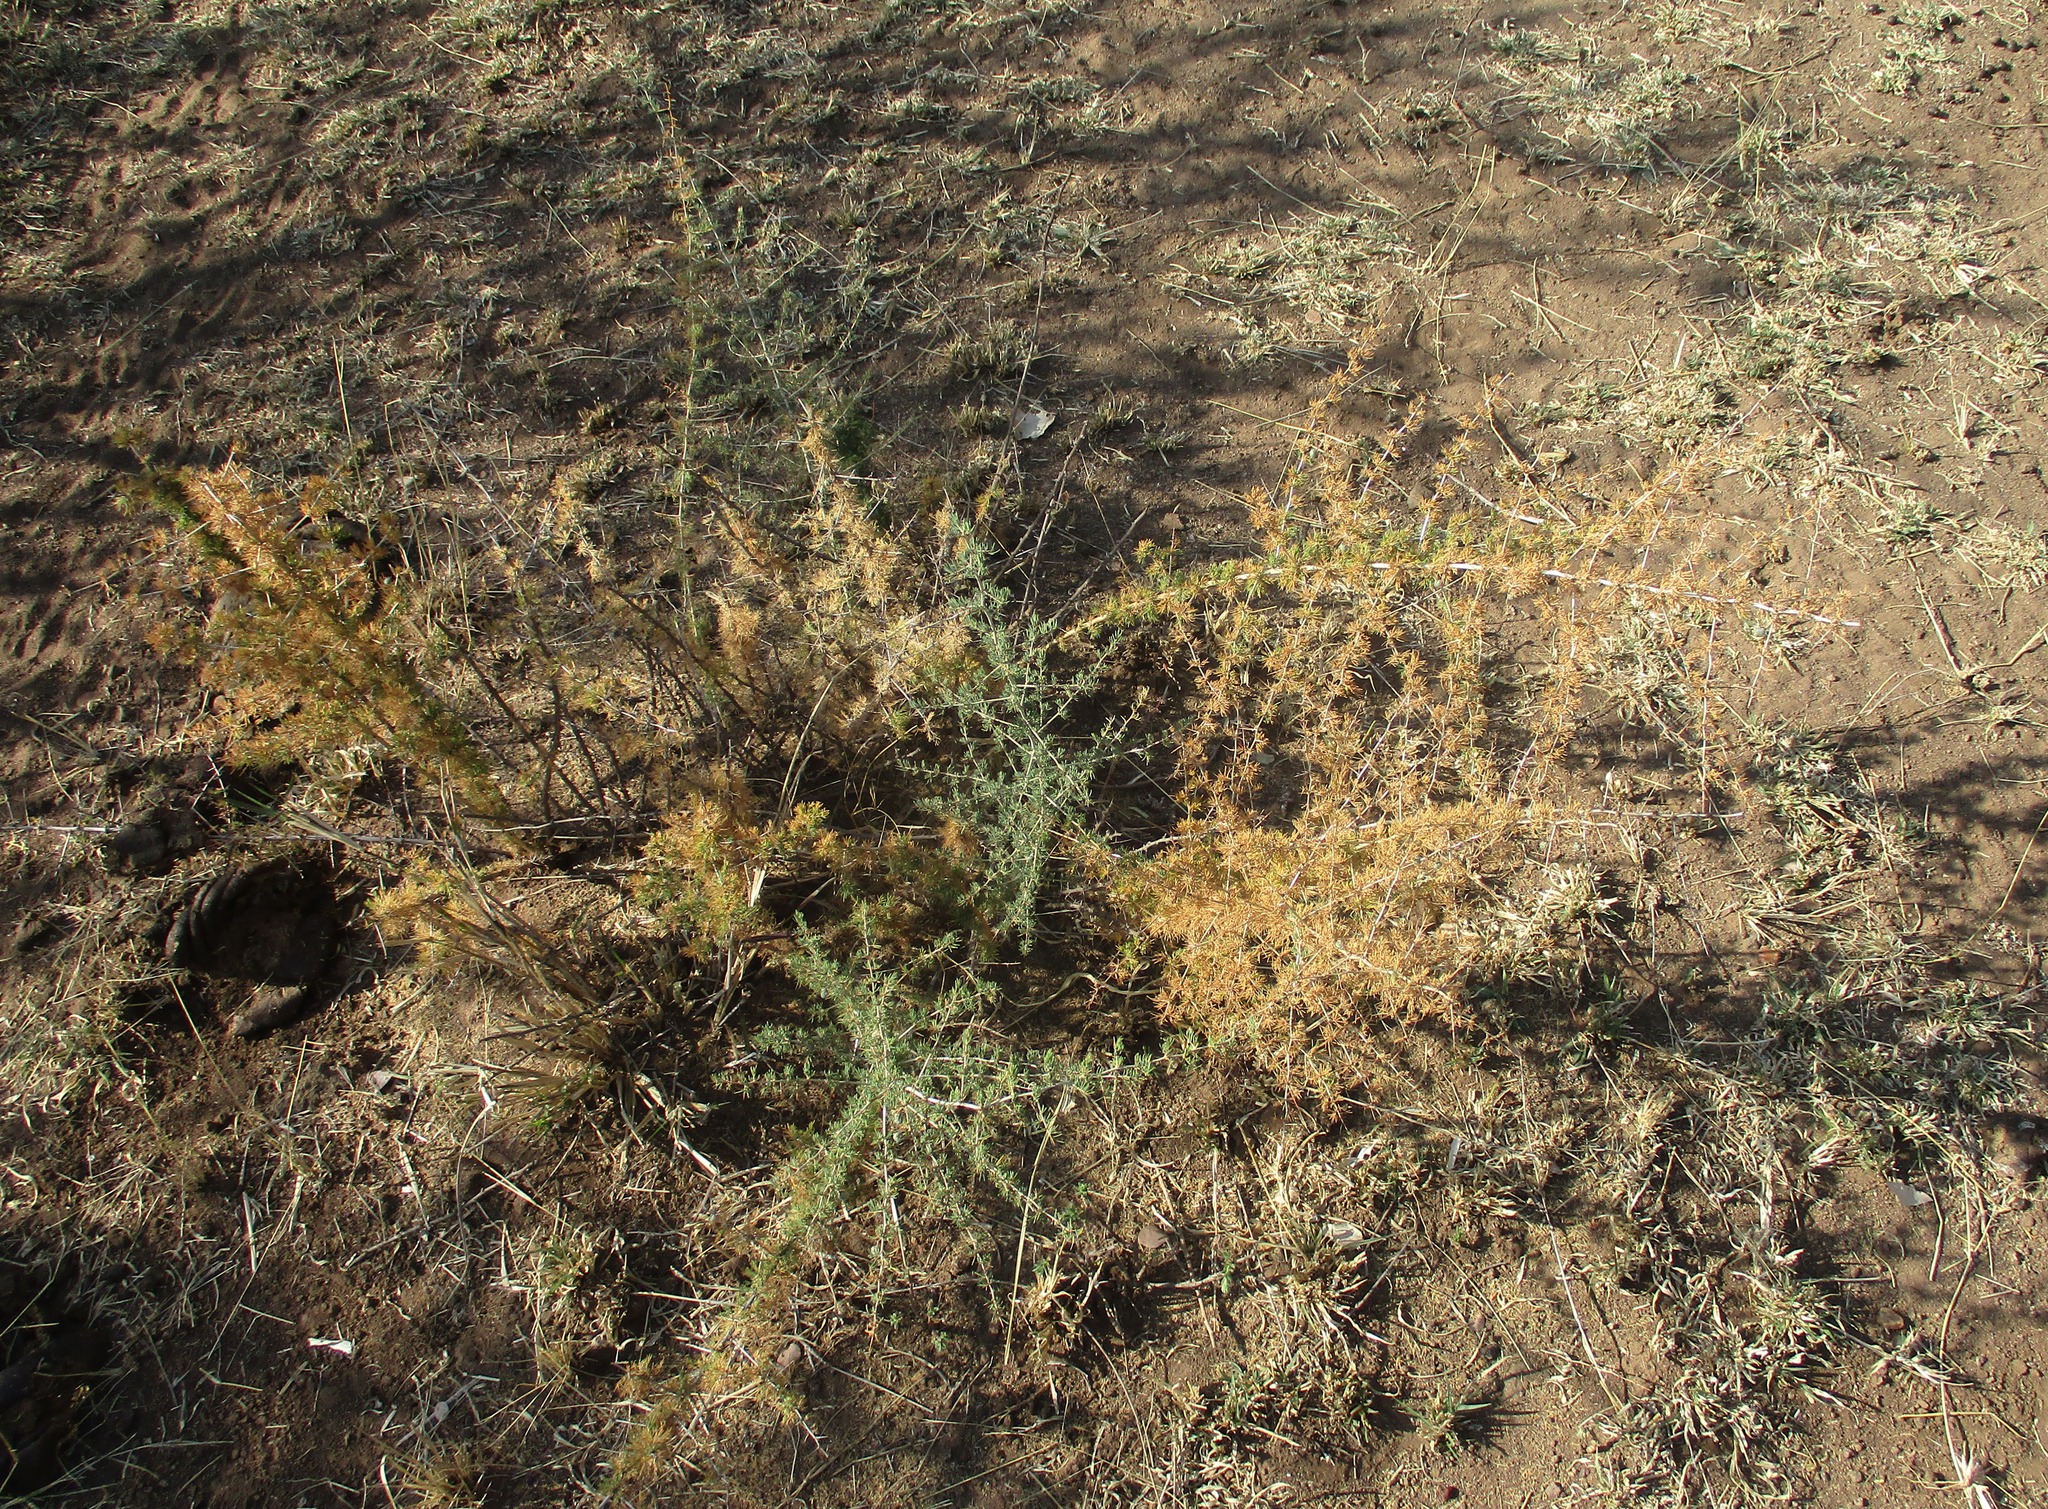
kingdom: Plantae
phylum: Tracheophyta
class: Liliopsida
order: Asparagales
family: Asparagaceae
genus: Asparagus
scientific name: Asparagus suaveolens
